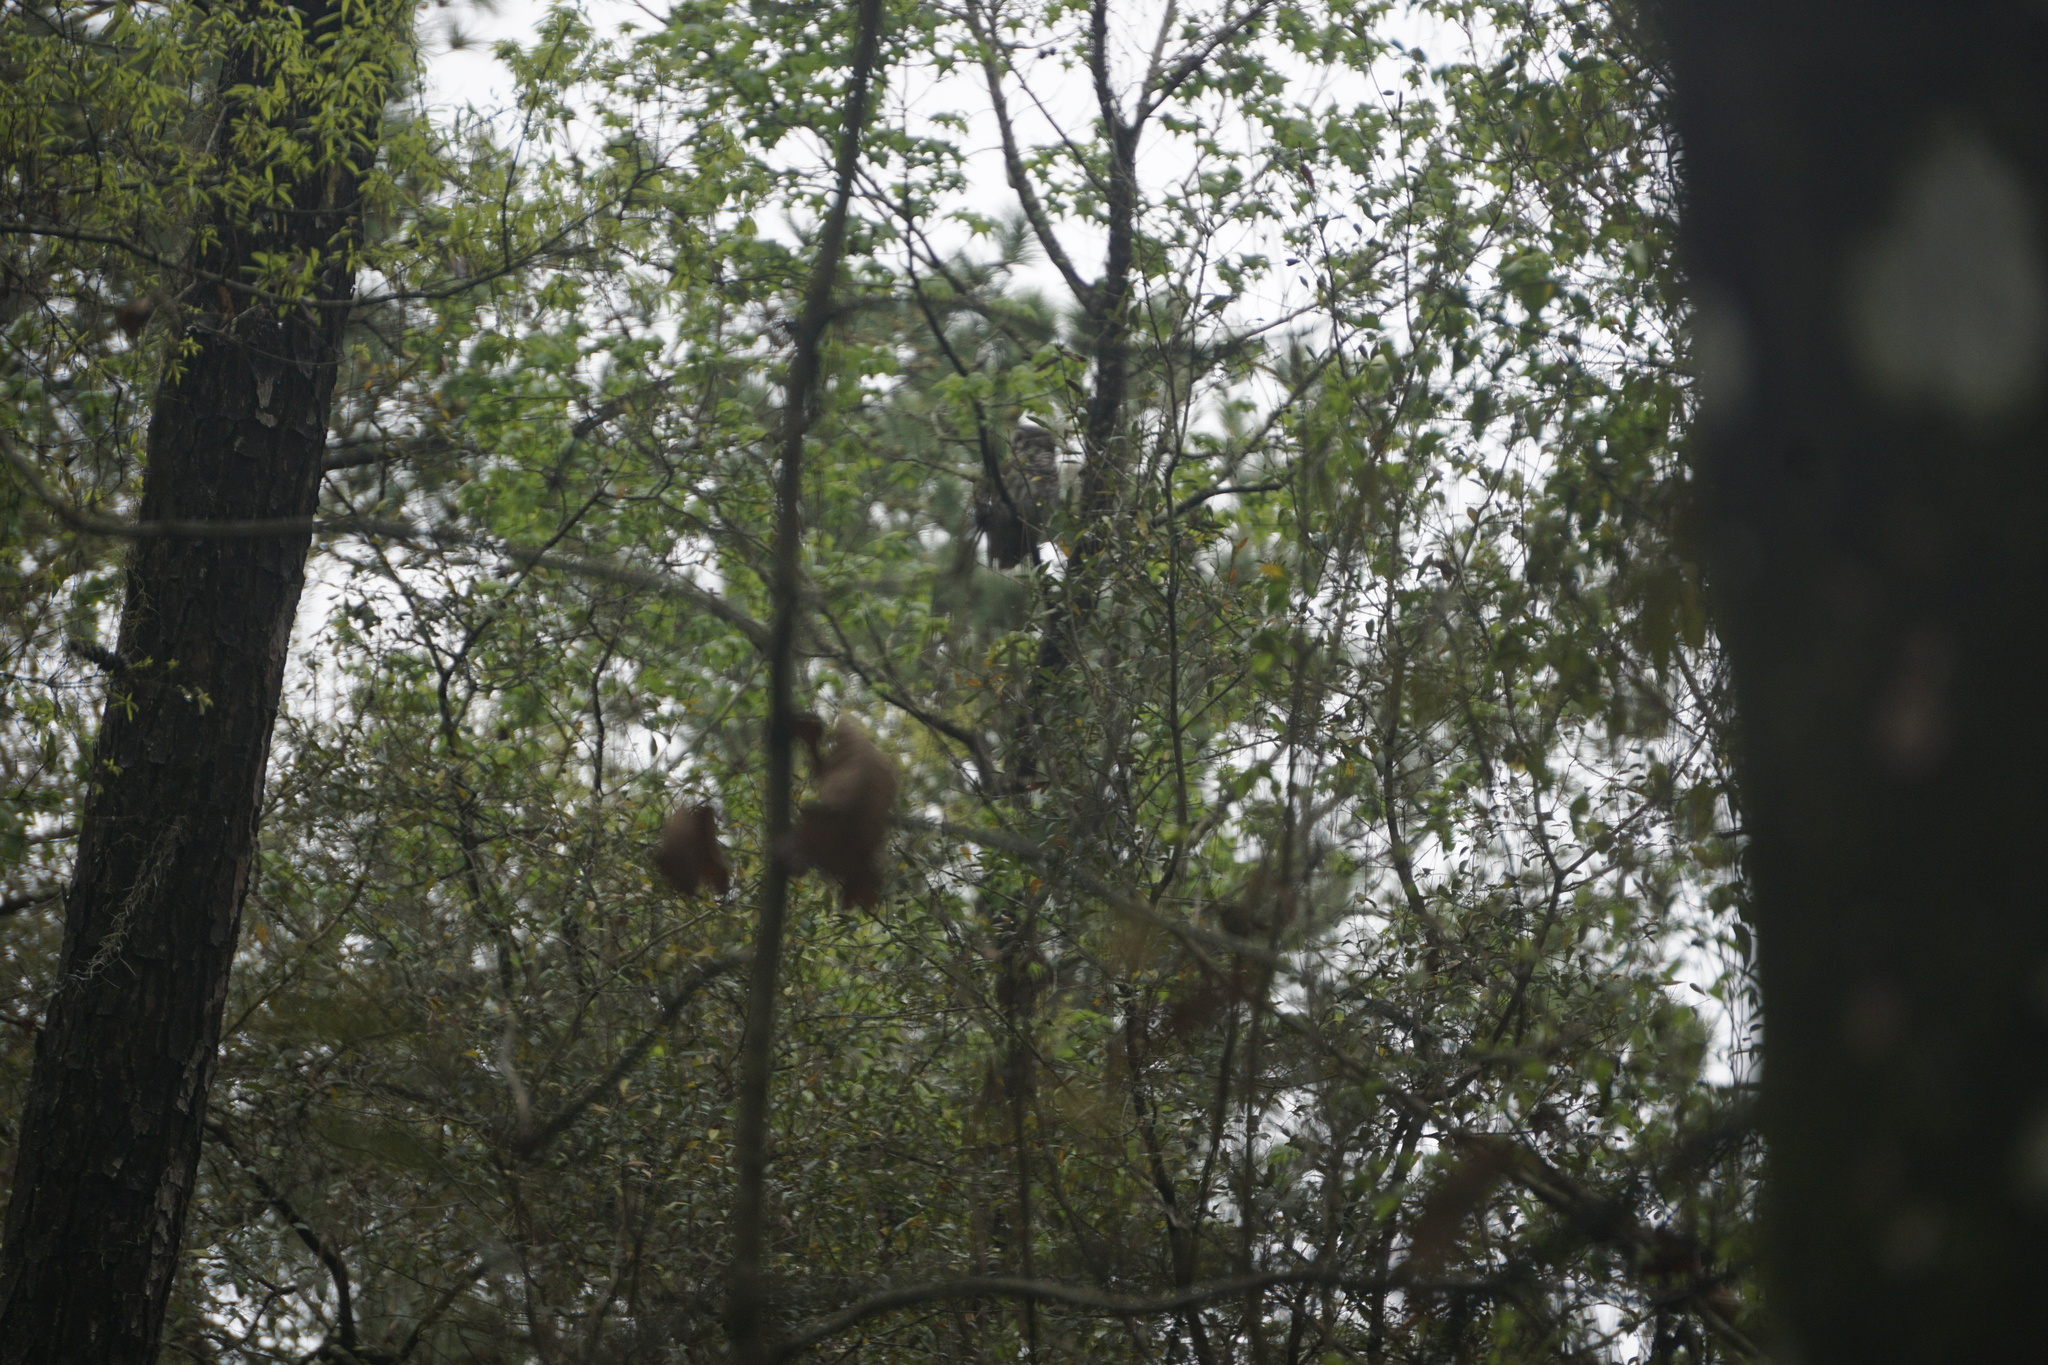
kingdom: Animalia
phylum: Chordata
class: Aves
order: Strigiformes
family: Strigidae
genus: Strix
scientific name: Strix varia
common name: Barred owl
